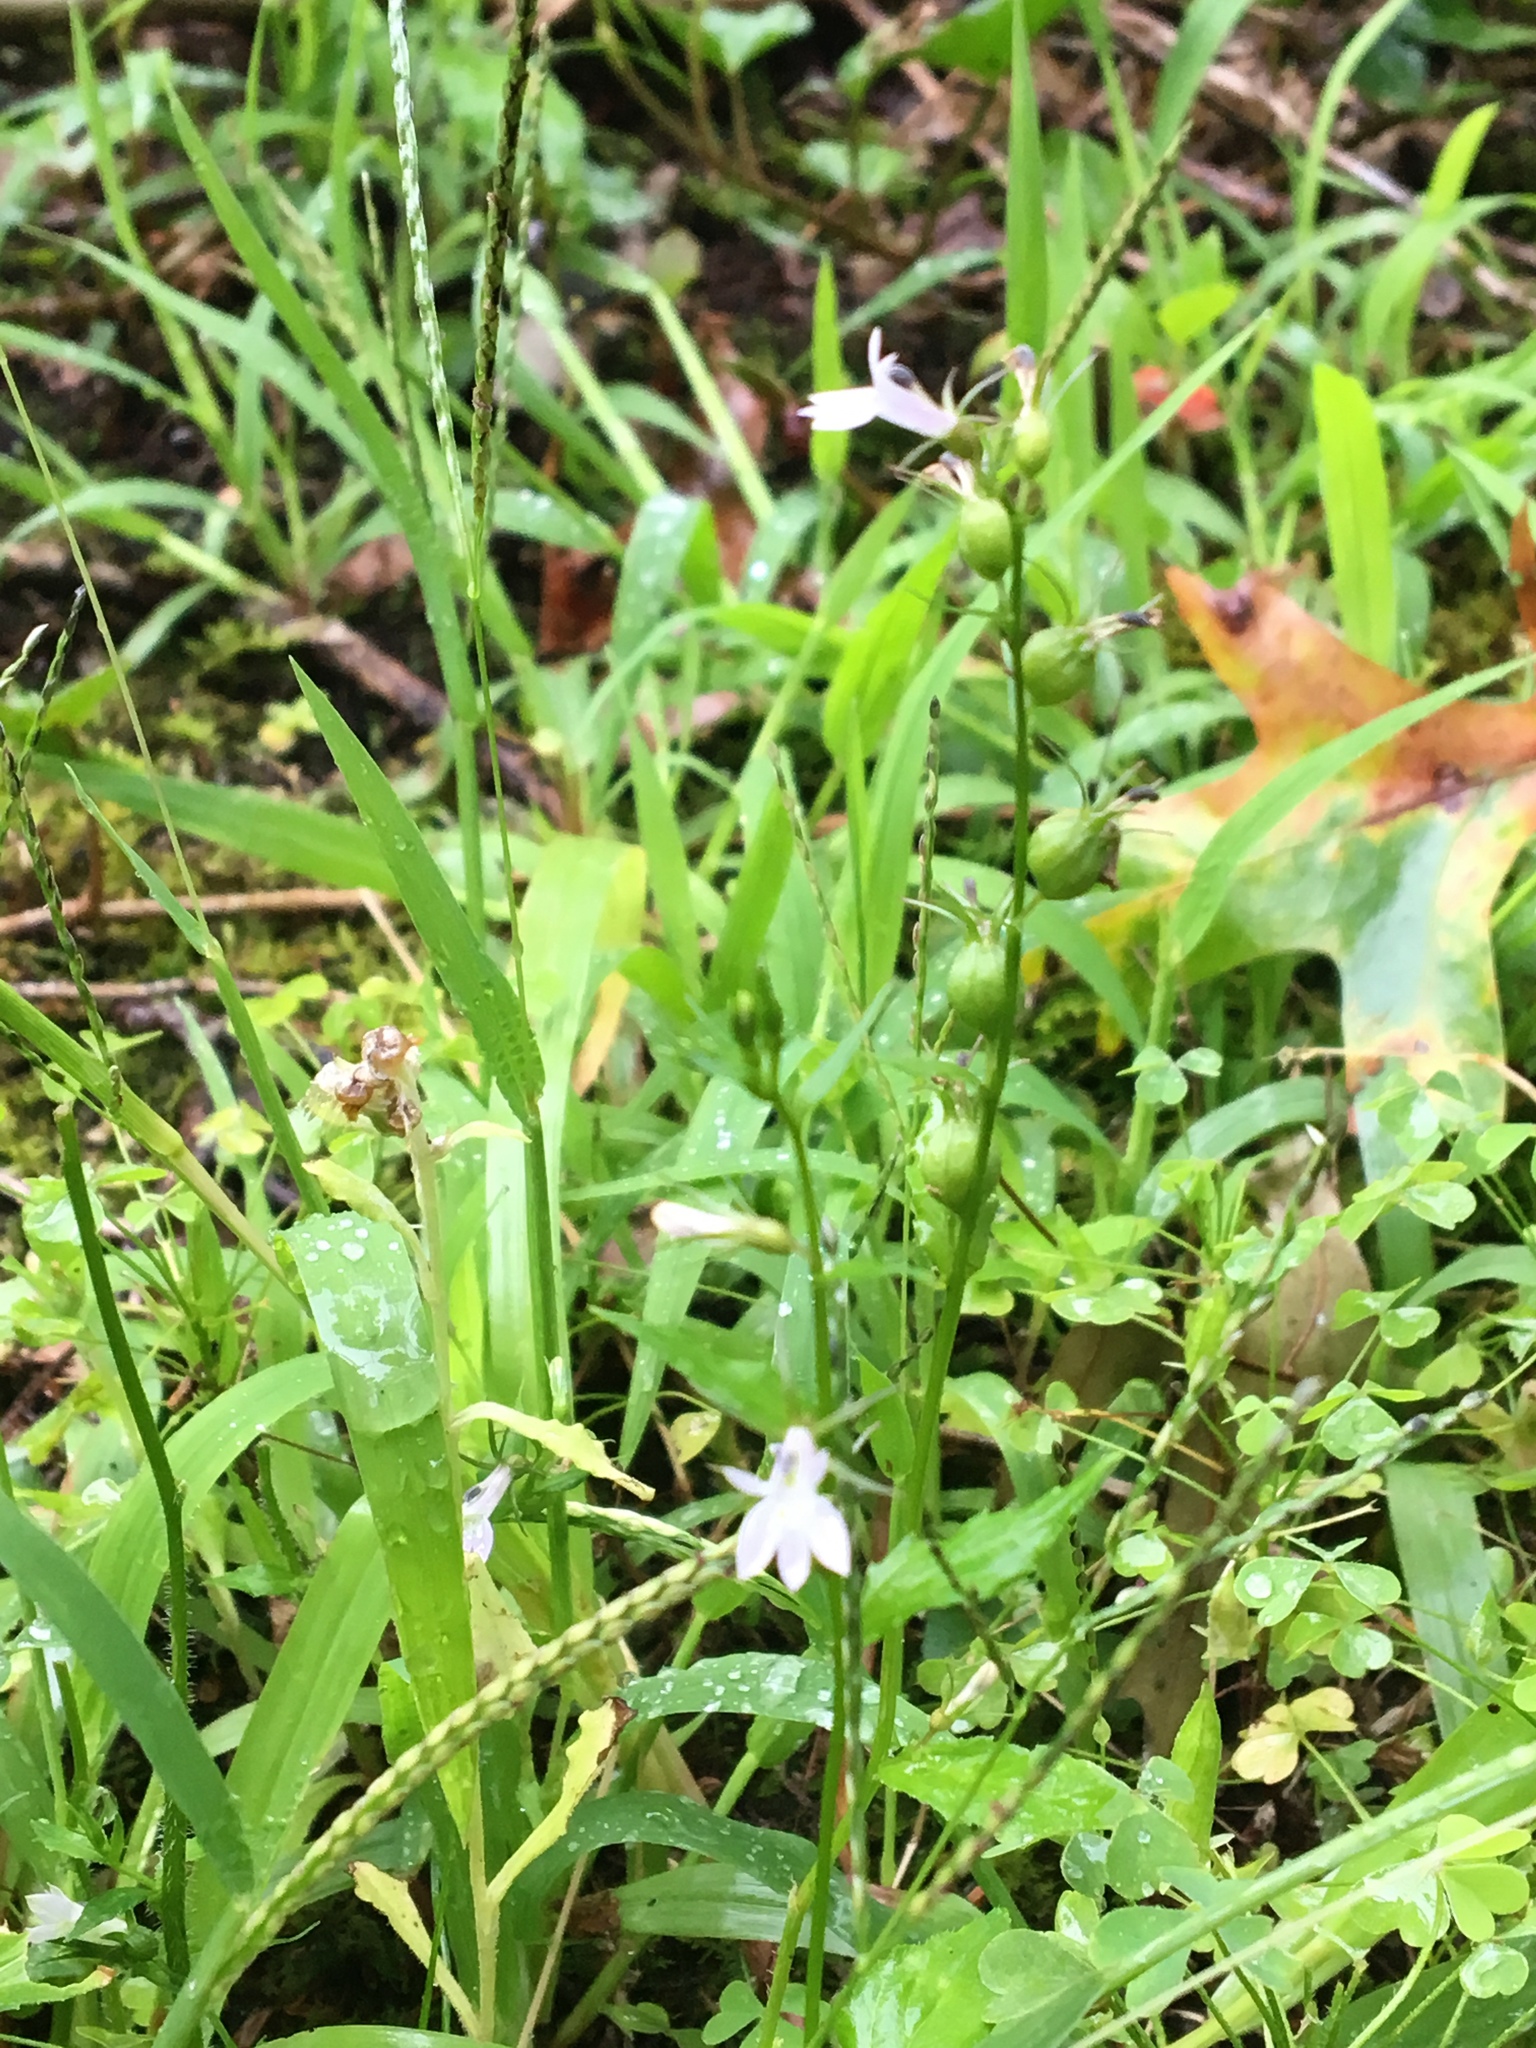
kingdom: Plantae
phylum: Tracheophyta
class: Magnoliopsida
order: Asterales
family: Campanulaceae
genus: Lobelia
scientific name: Lobelia inflata
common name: Indian tobacco
